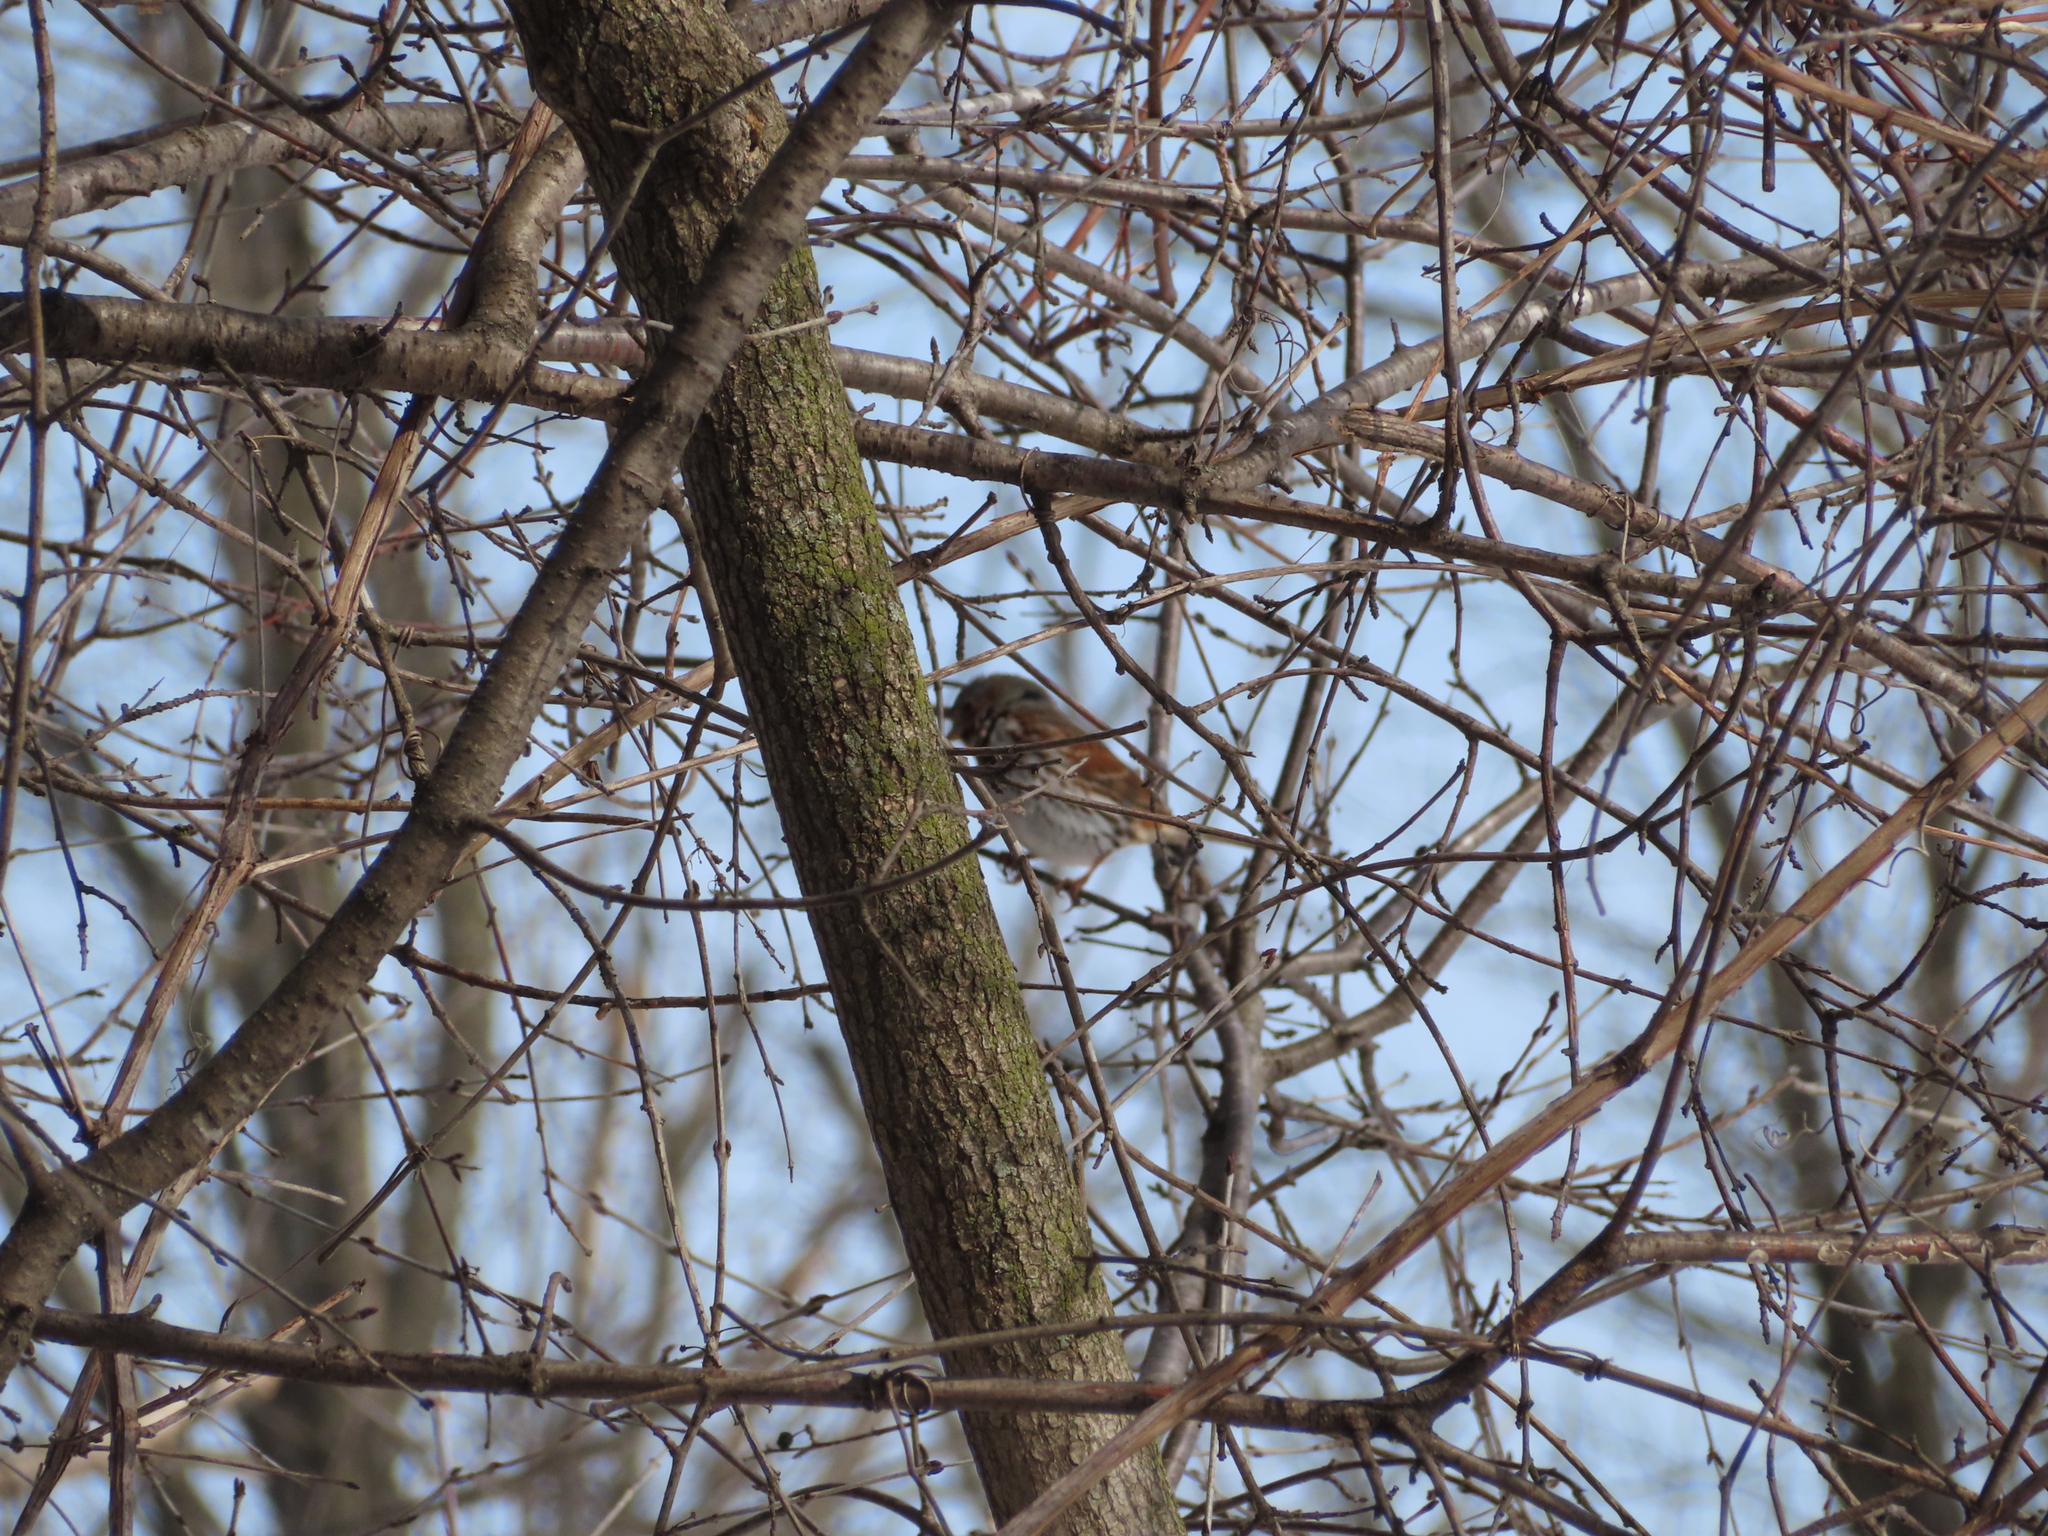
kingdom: Animalia
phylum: Chordata
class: Aves
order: Passeriformes
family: Passerellidae
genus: Passerella
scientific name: Passerella iliaca
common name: Fox sparrow
